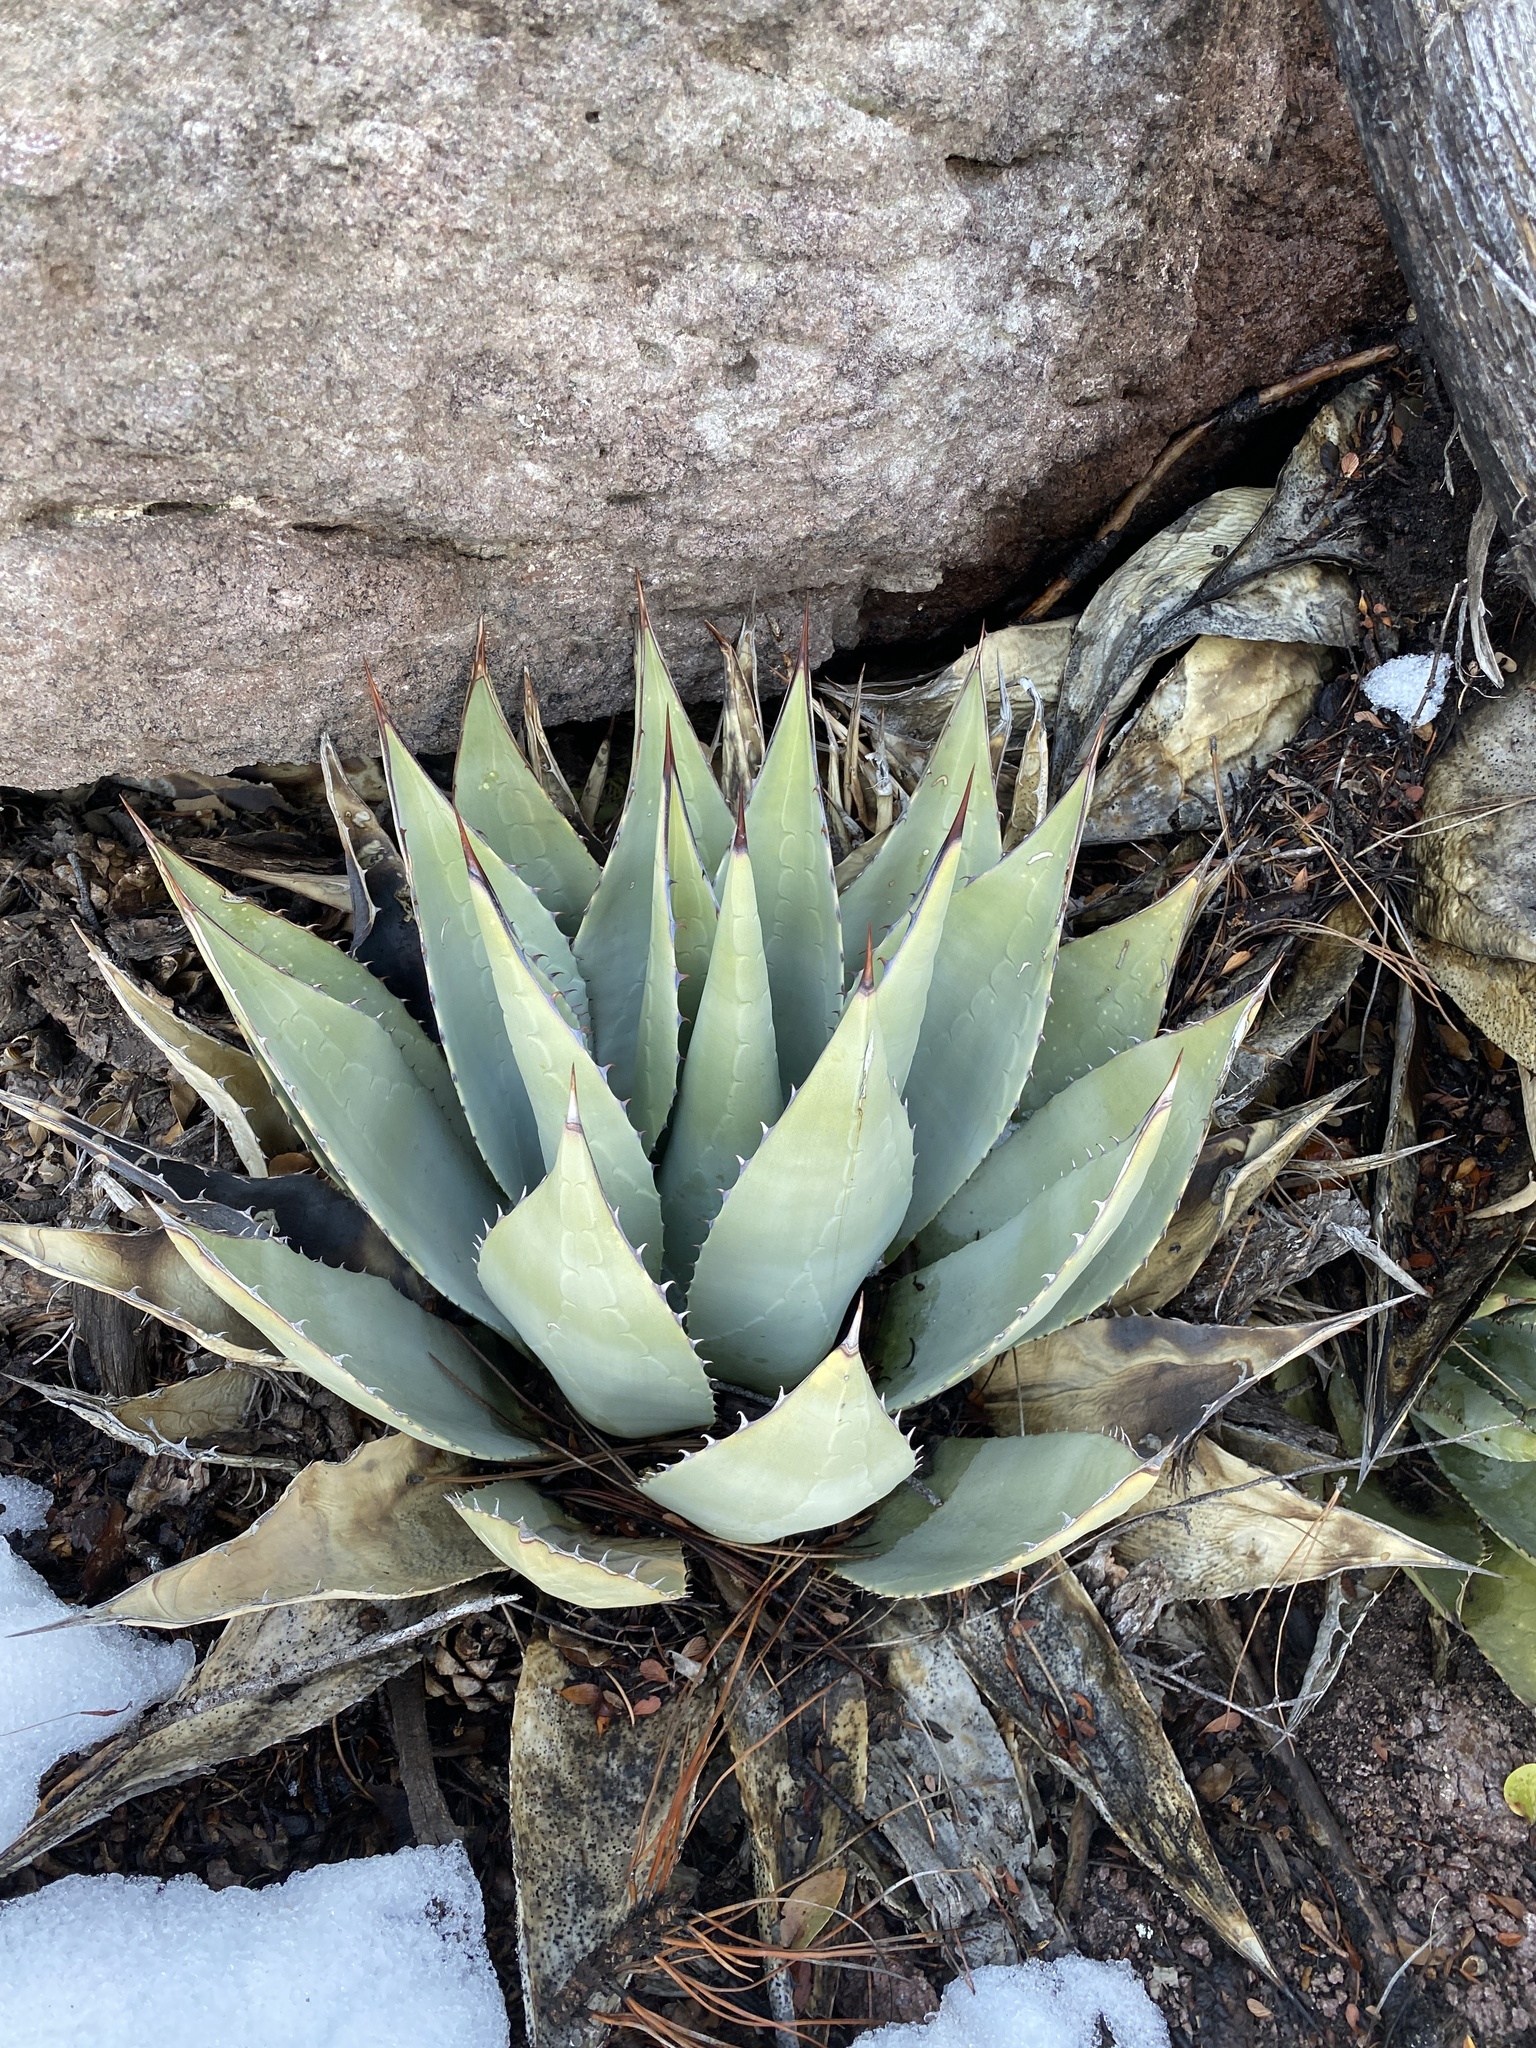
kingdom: Plantae
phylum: Tracheophyta
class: Liliopsida
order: Asparagales
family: Asparagaceae
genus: Agave
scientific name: Agave parryi
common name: Parry's agave
